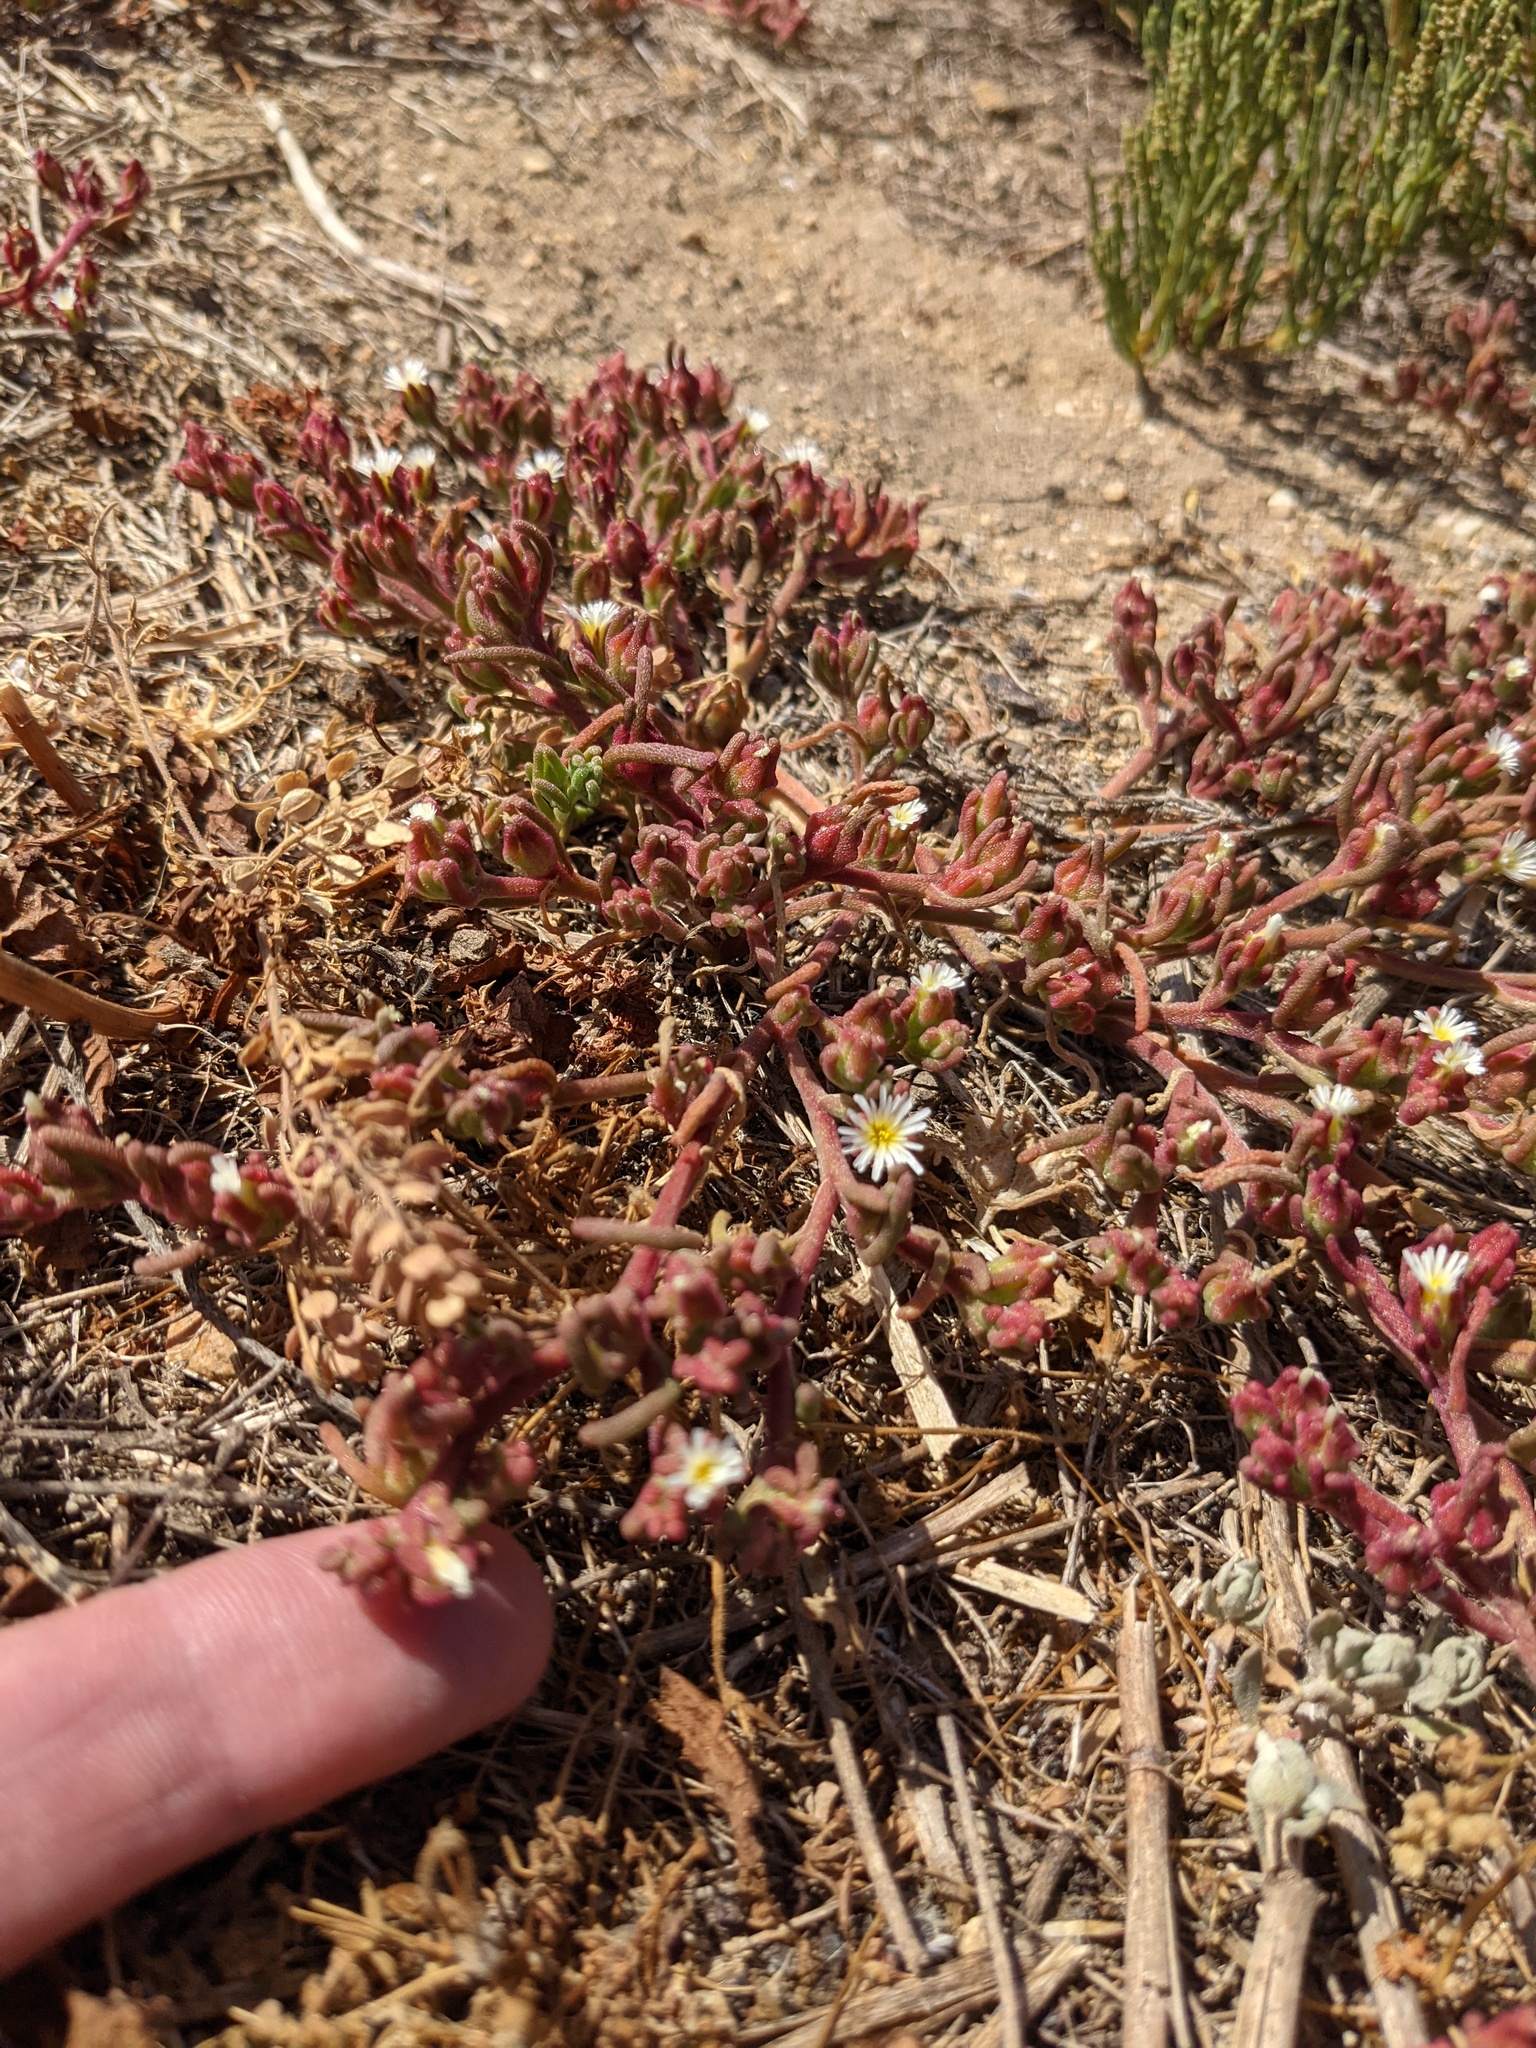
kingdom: Plantae
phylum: Tracheophyta
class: Magnoliopsida
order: Caryophyllales
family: Aizoaceae
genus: Mesembryanthemum
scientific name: Mesembryanthemum nodiflorum
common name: Slenderleaf iceplant
